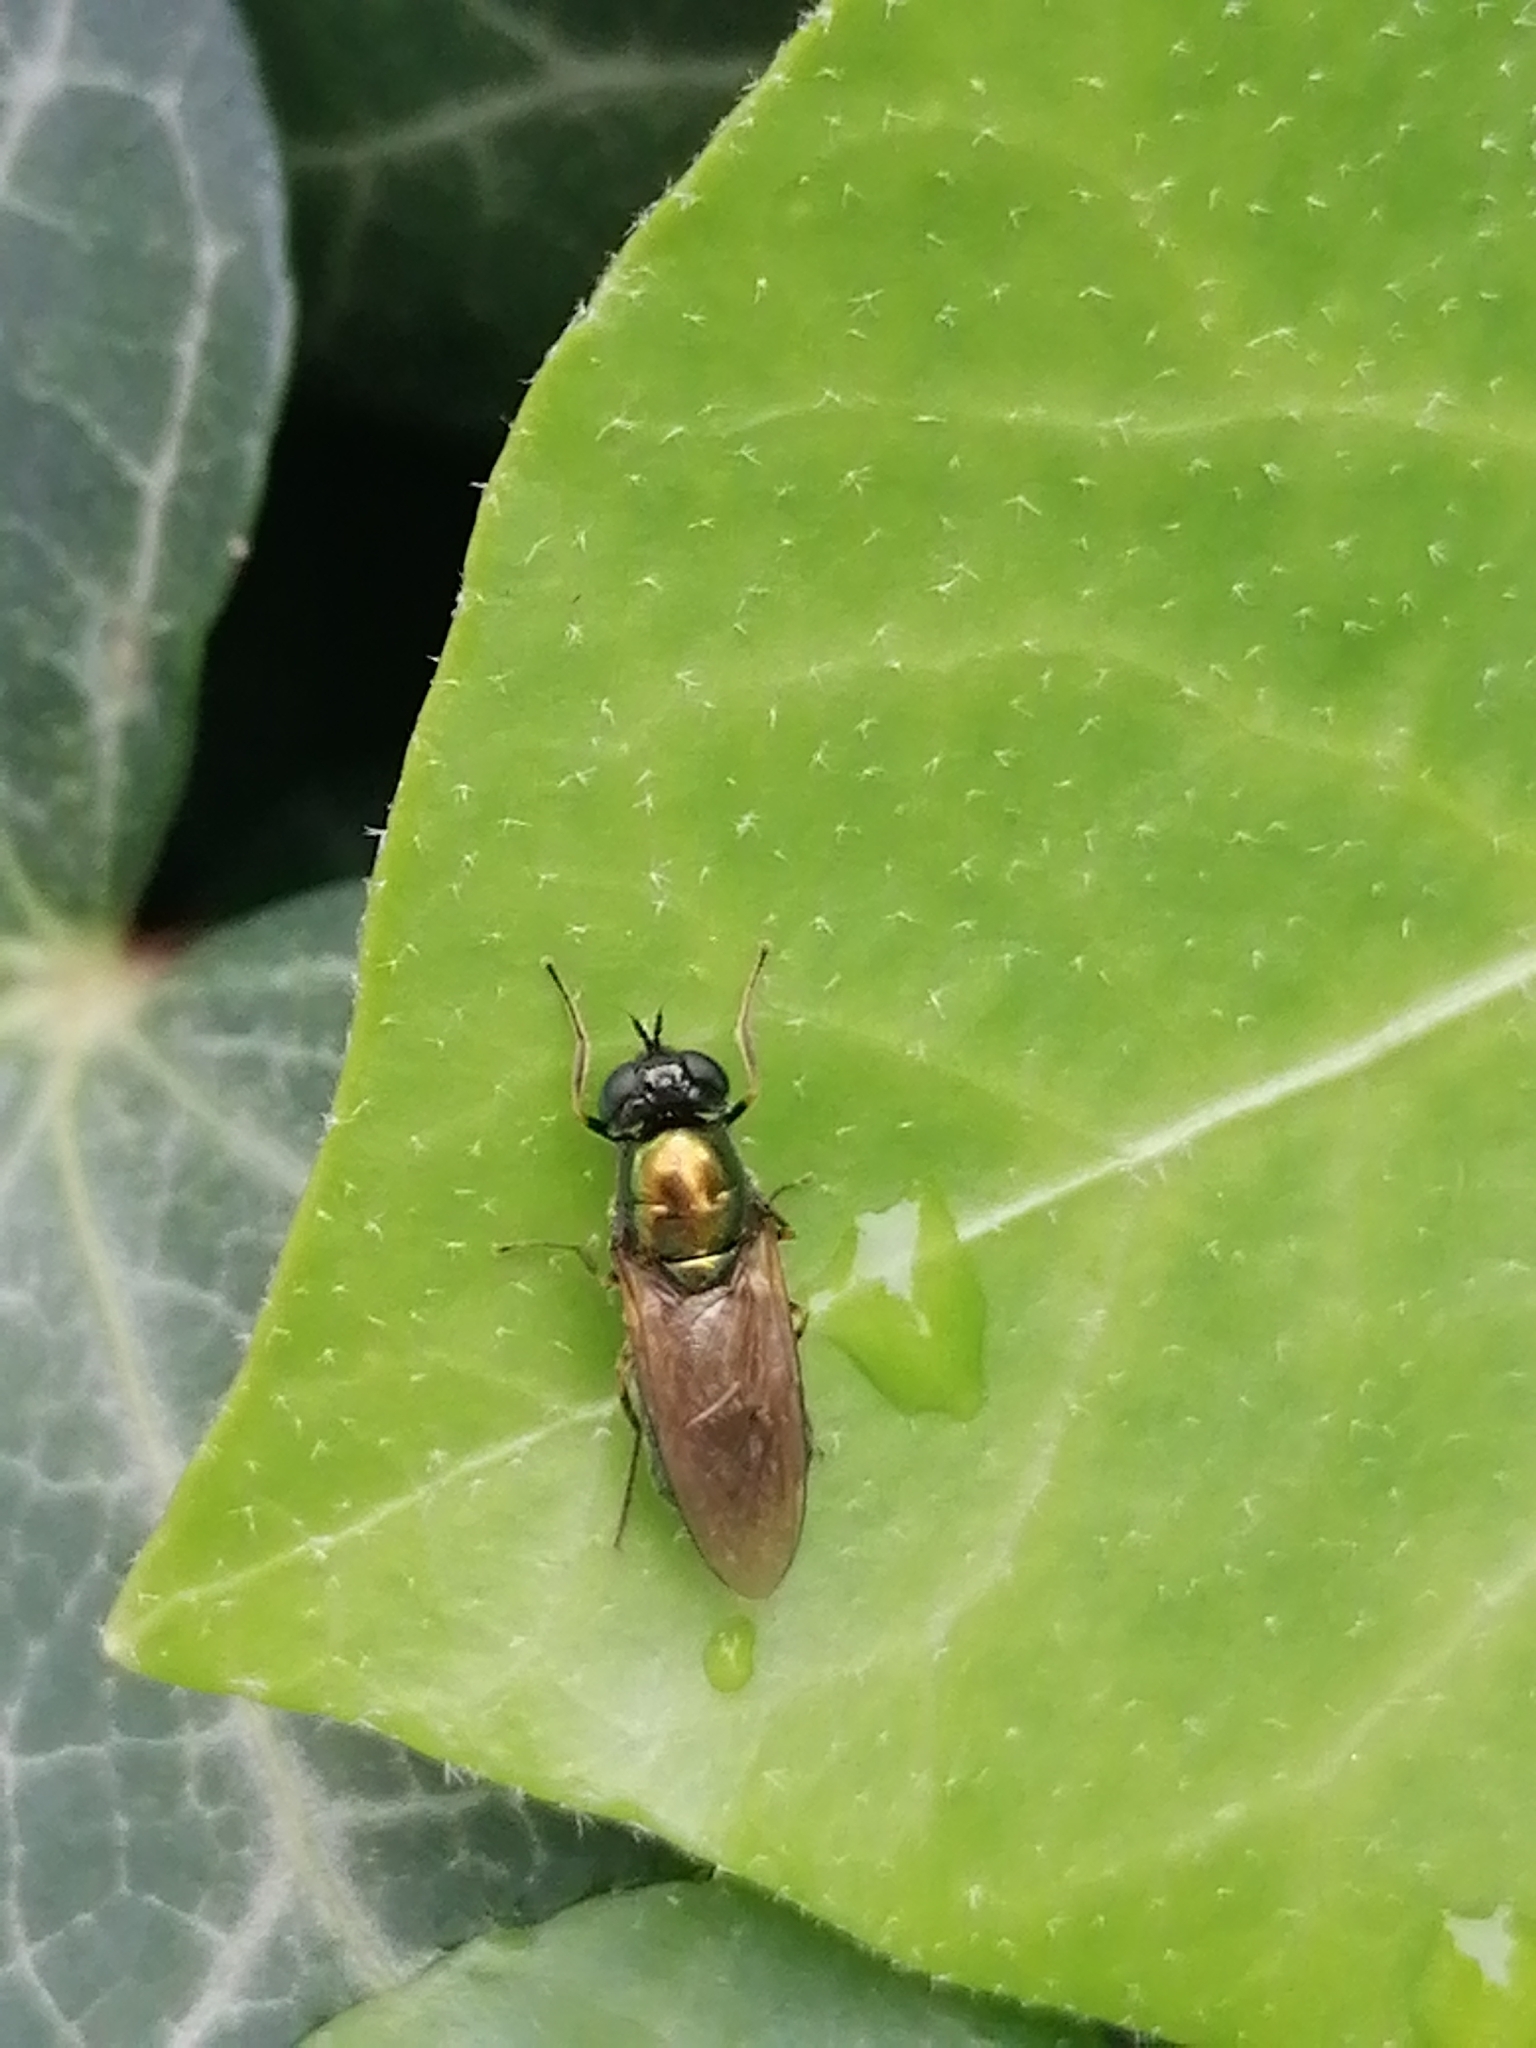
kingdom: Animalia
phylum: Arthropoda
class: Insecta
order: Diptera
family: Stratiomyidae
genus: Chloromyia
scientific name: Chloromyia formosa
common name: Soldier fly
